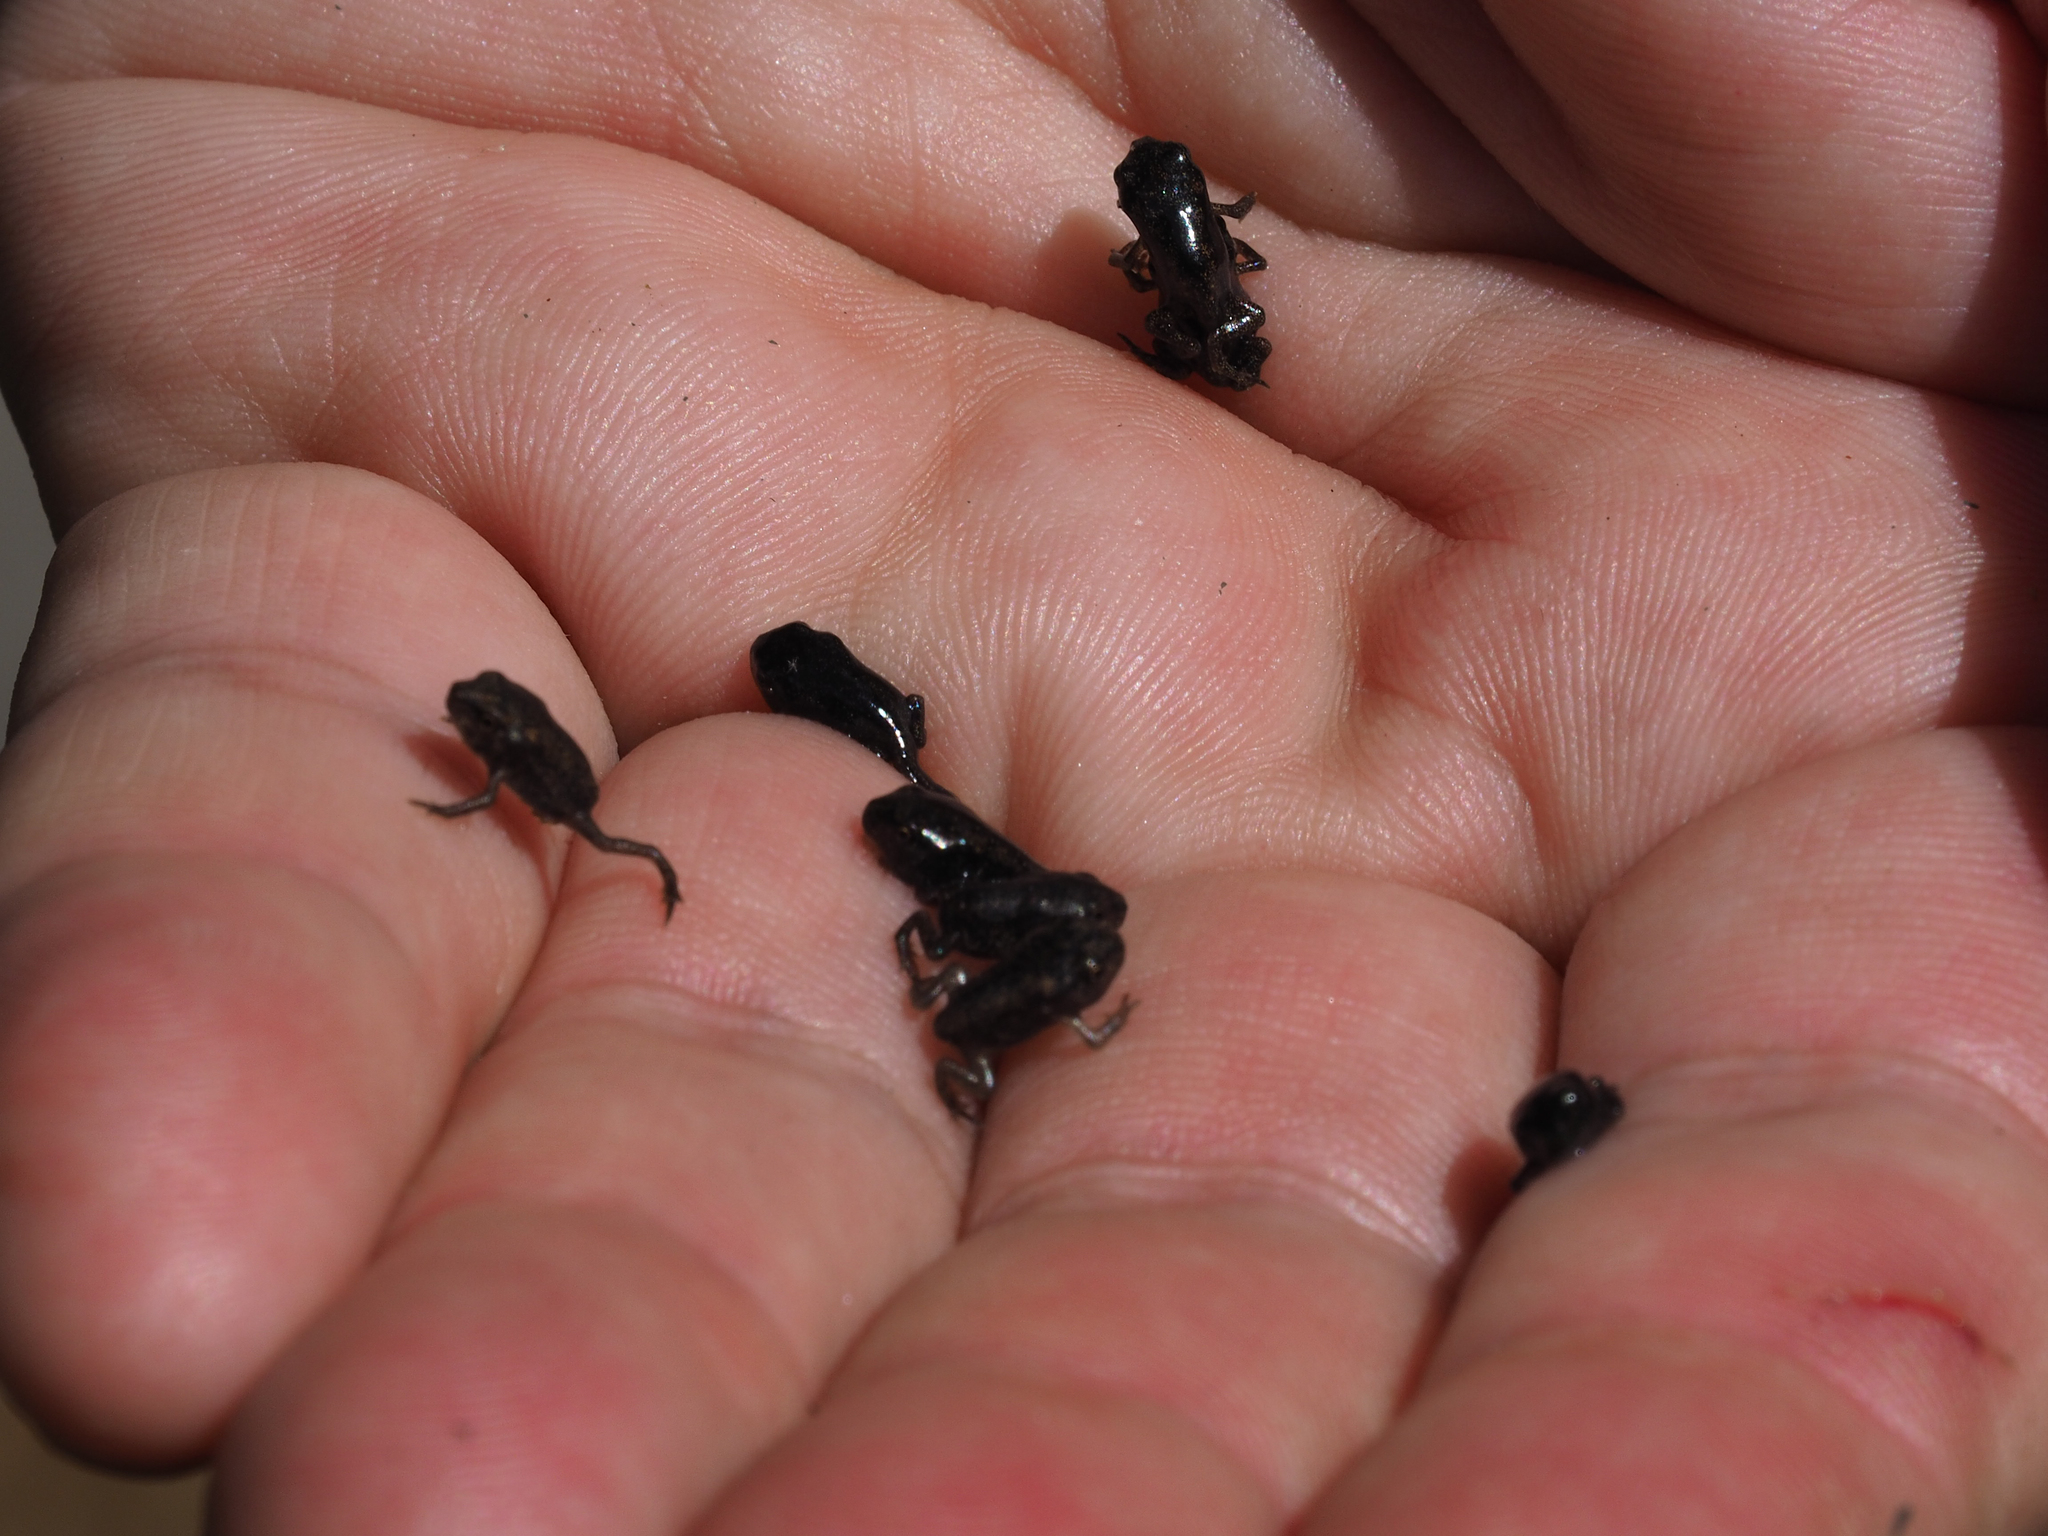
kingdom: Animalia
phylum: Chordata
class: Amphibia
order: Anura
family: Bufonidae
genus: Anaxyrus
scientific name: Anaxyrus americanus
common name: American toad
